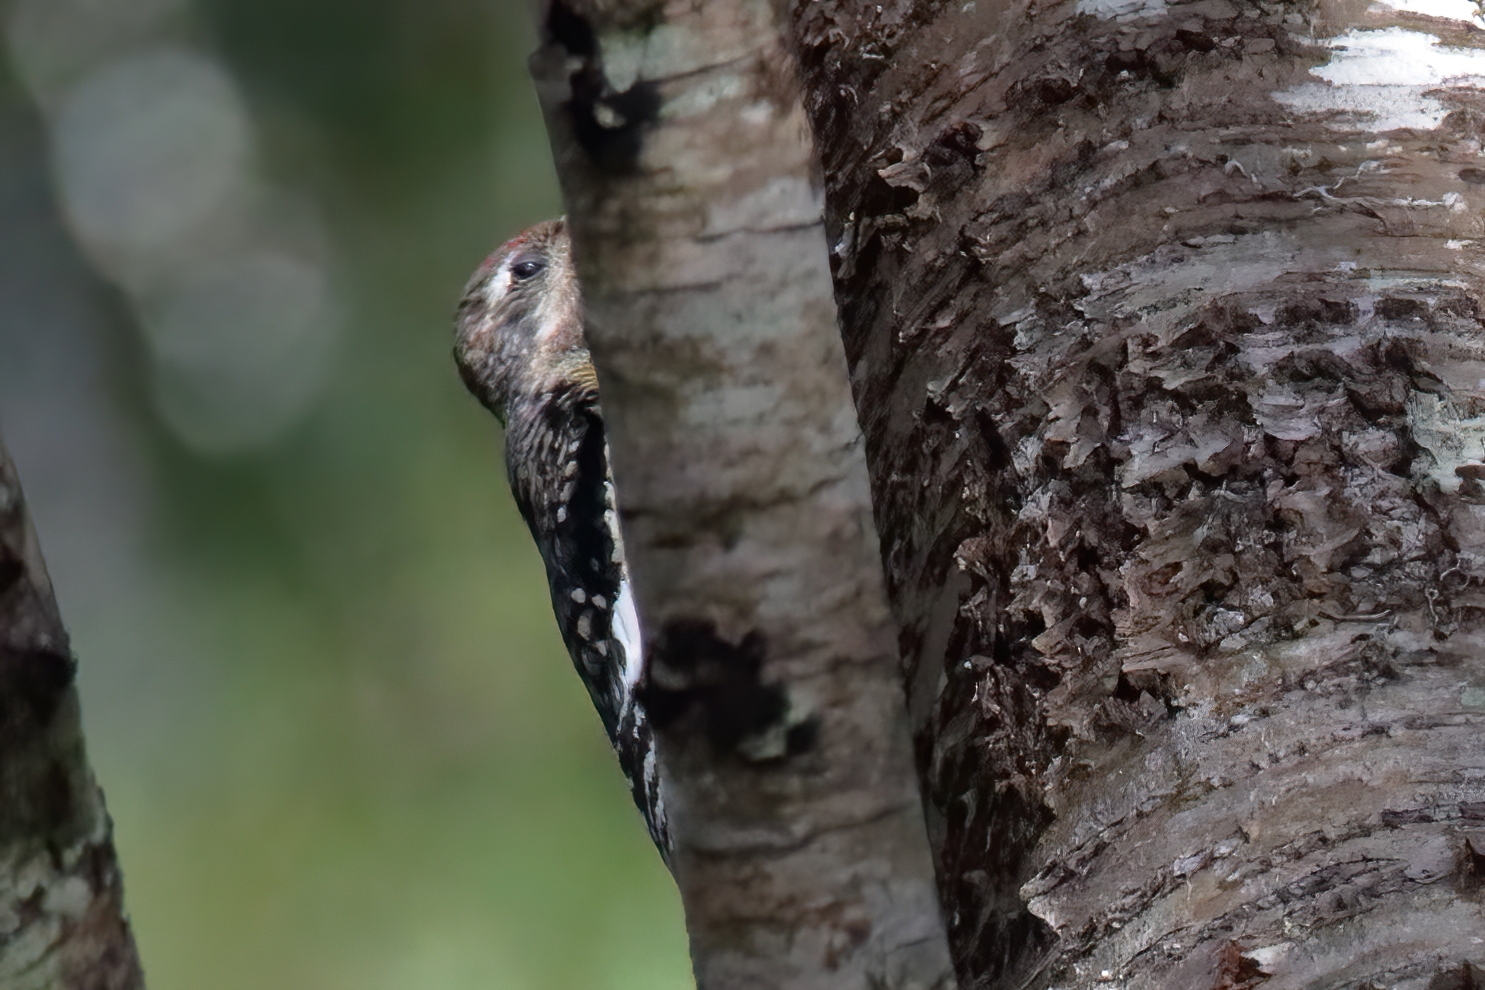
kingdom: Animalia
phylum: Chordata
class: Aves
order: Piciformes
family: Picidae
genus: Sphyrapicus
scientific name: Sphyrapicus varius
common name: Yellow-bellied sapsucker
